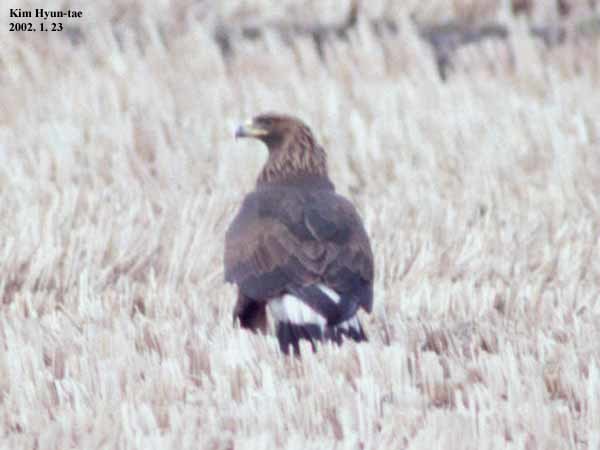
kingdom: Animalia
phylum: Chordata
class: Aves
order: Accipitriformes
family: Accipitridae
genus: Aquila
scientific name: Aquila chrysaetos
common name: Golden eagle
